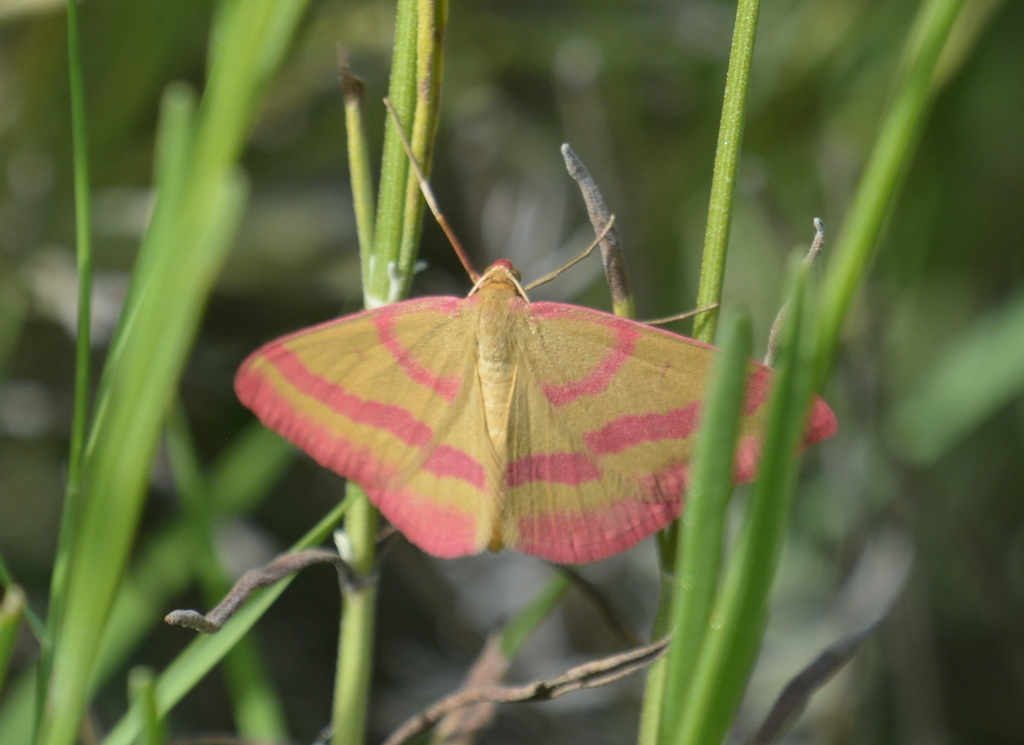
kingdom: Animalia
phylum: Arthropoda
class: Insecta
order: Lepidoptera
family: Geometridae
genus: Rhodostrophia
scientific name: Rhodostrophia calabra
